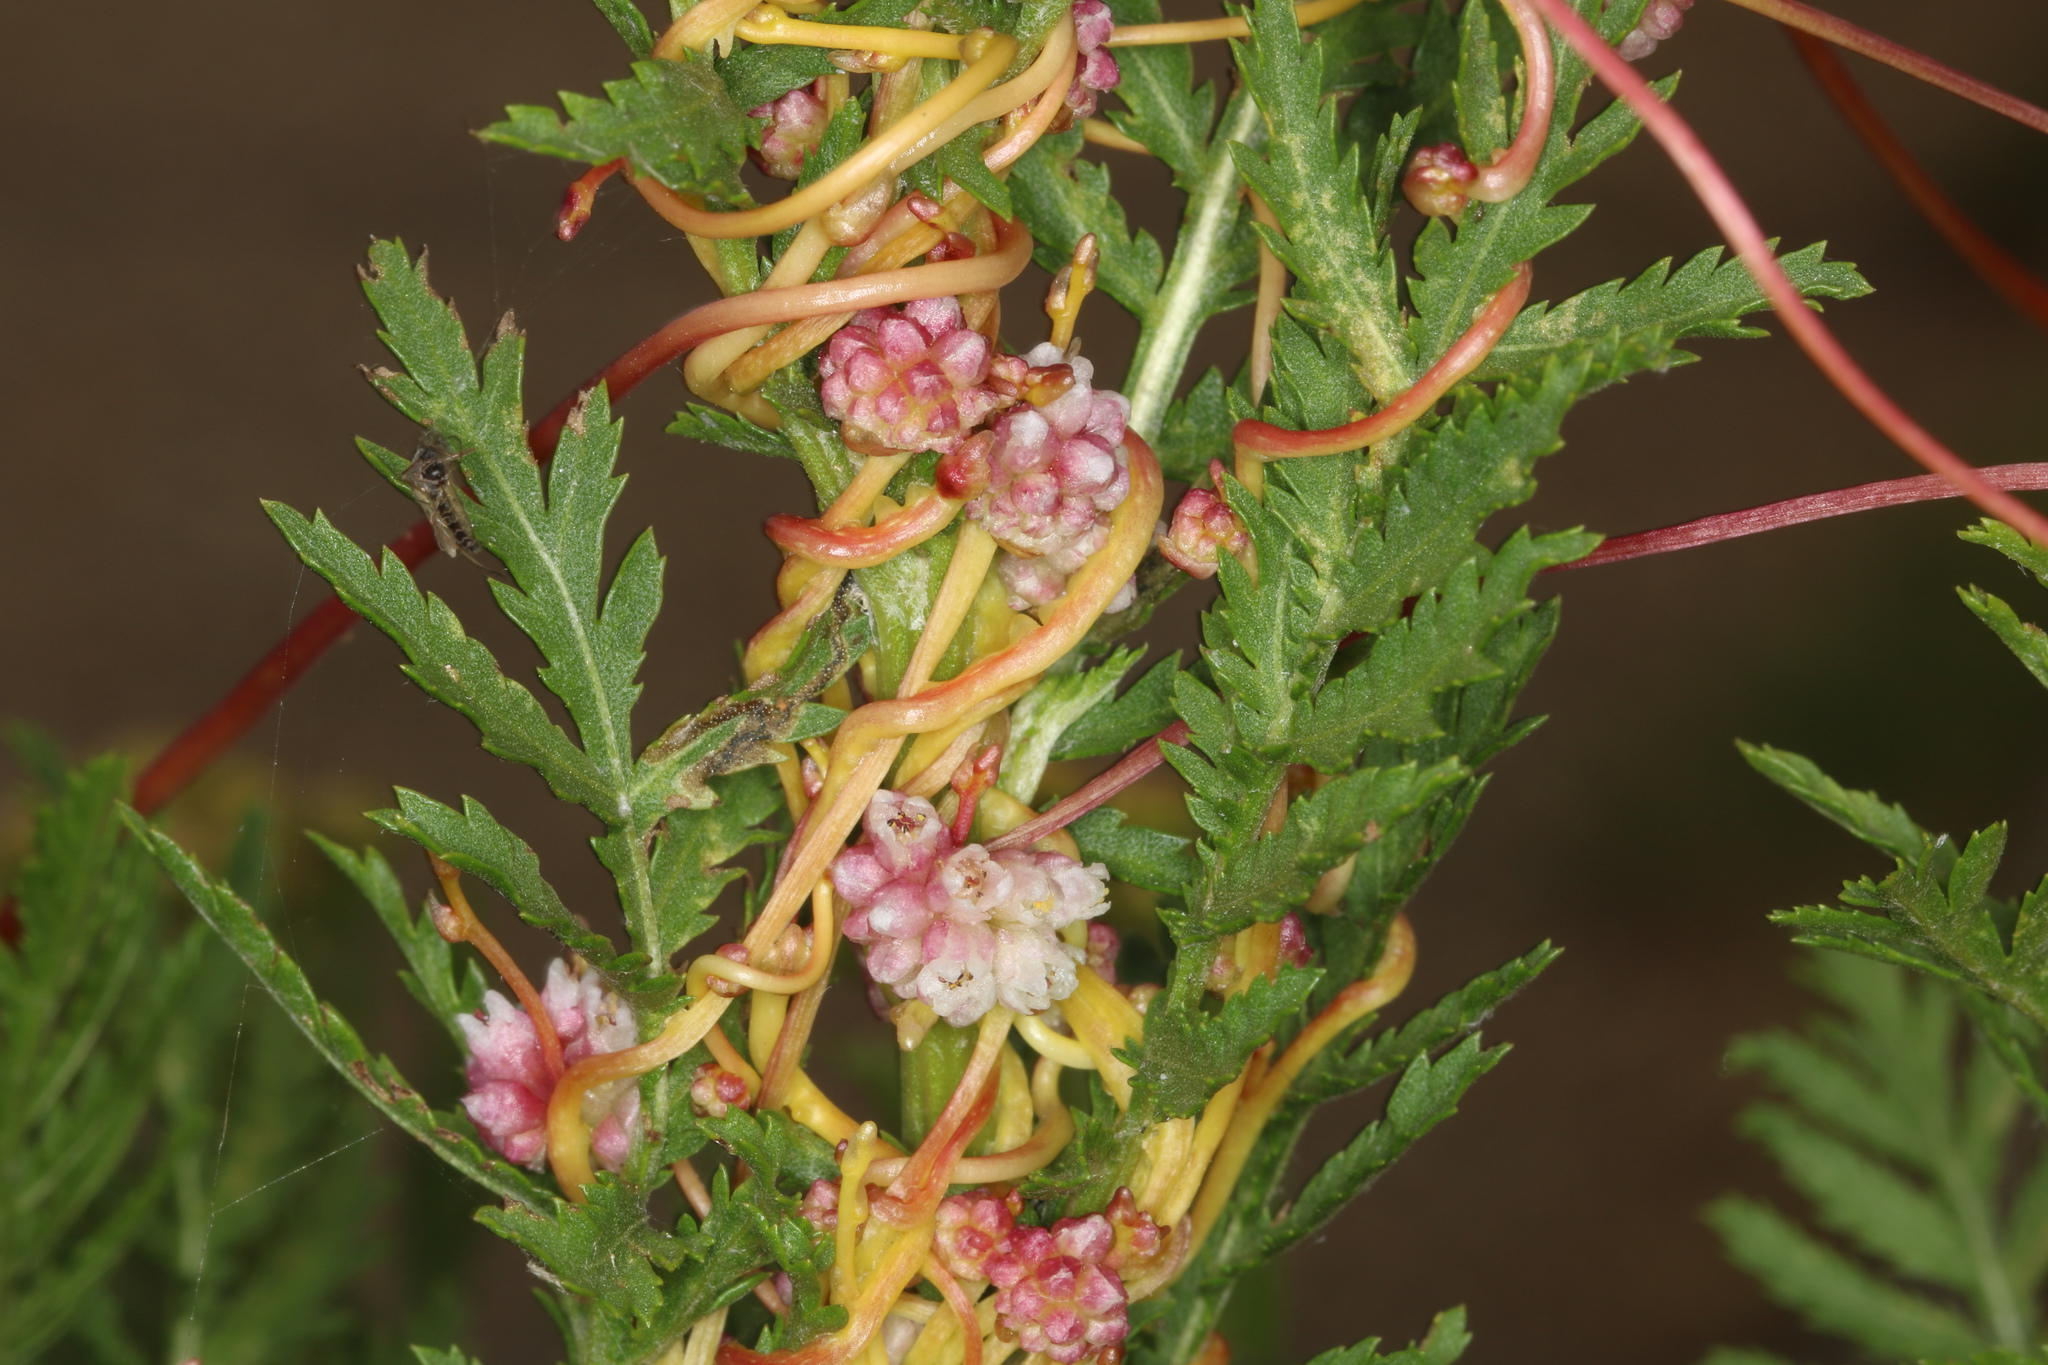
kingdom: Plantae
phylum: Tracheophyta
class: Magnoliopsida
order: Solanales
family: Convolvulaceae
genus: Cuscuta
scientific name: Cuscuta europaea
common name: Greater dodder
